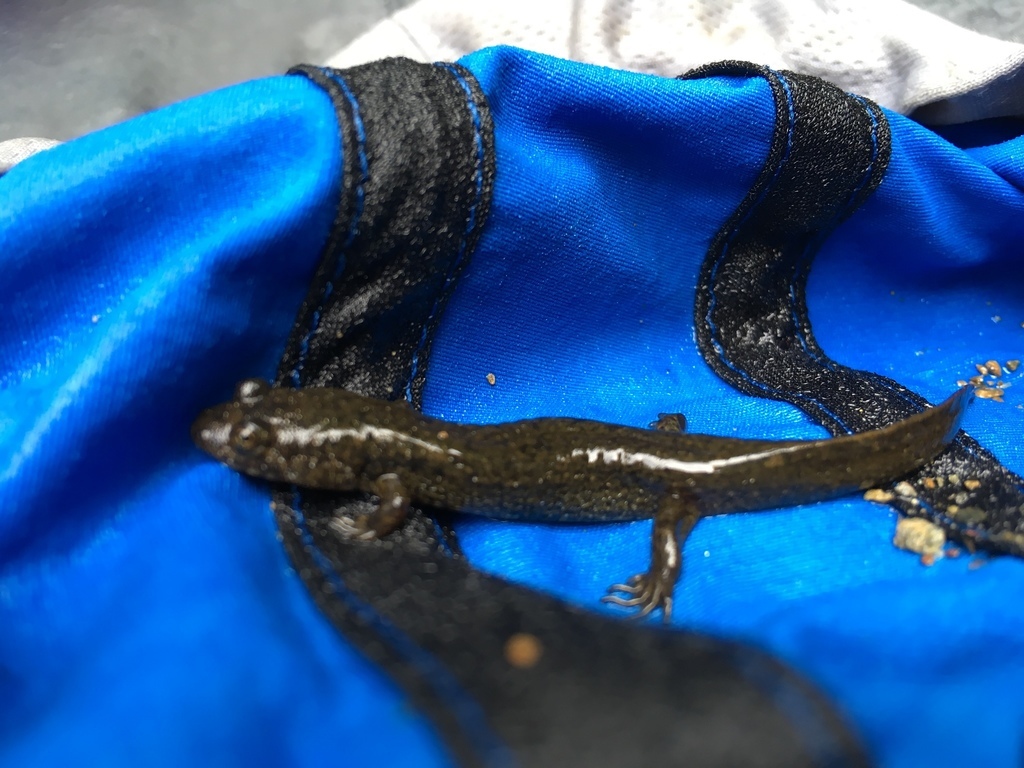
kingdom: Animalia
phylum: Chordata
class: Amphibia
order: Caudata
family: Plethodontidae
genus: Desmognathus
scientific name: Desmognathus
